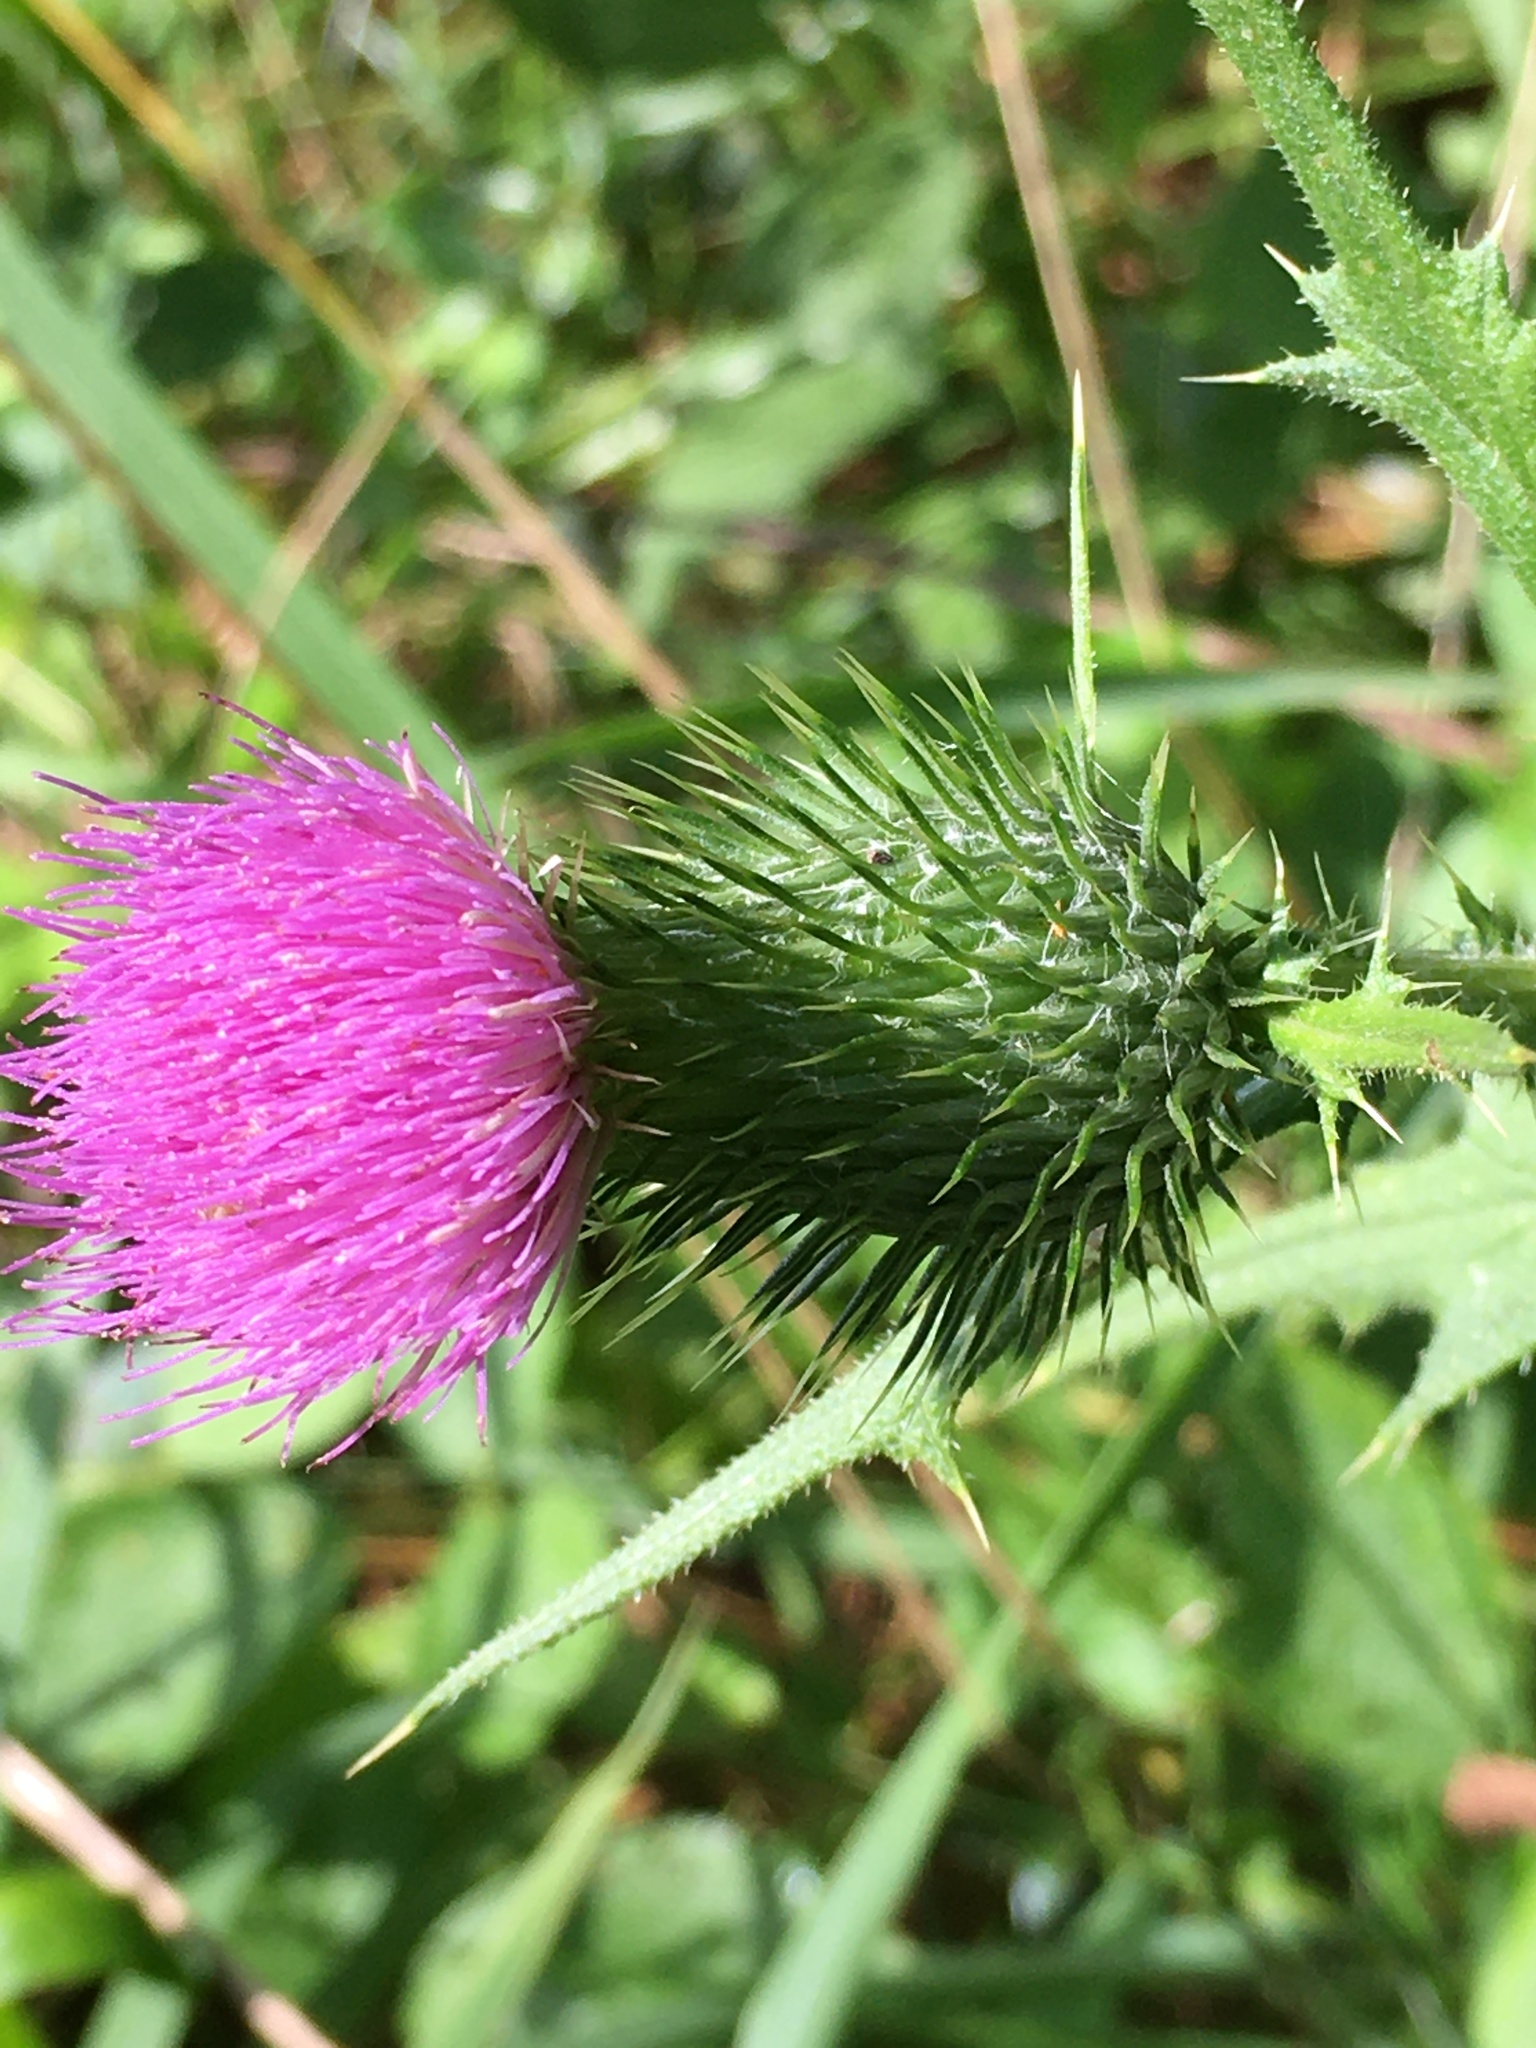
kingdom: Plantae
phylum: Tracheophyta
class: Magnoliopsida
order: Asterales
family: Asteraceae
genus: Cirsium
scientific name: Cirsium vulgare
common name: Bull thistle
